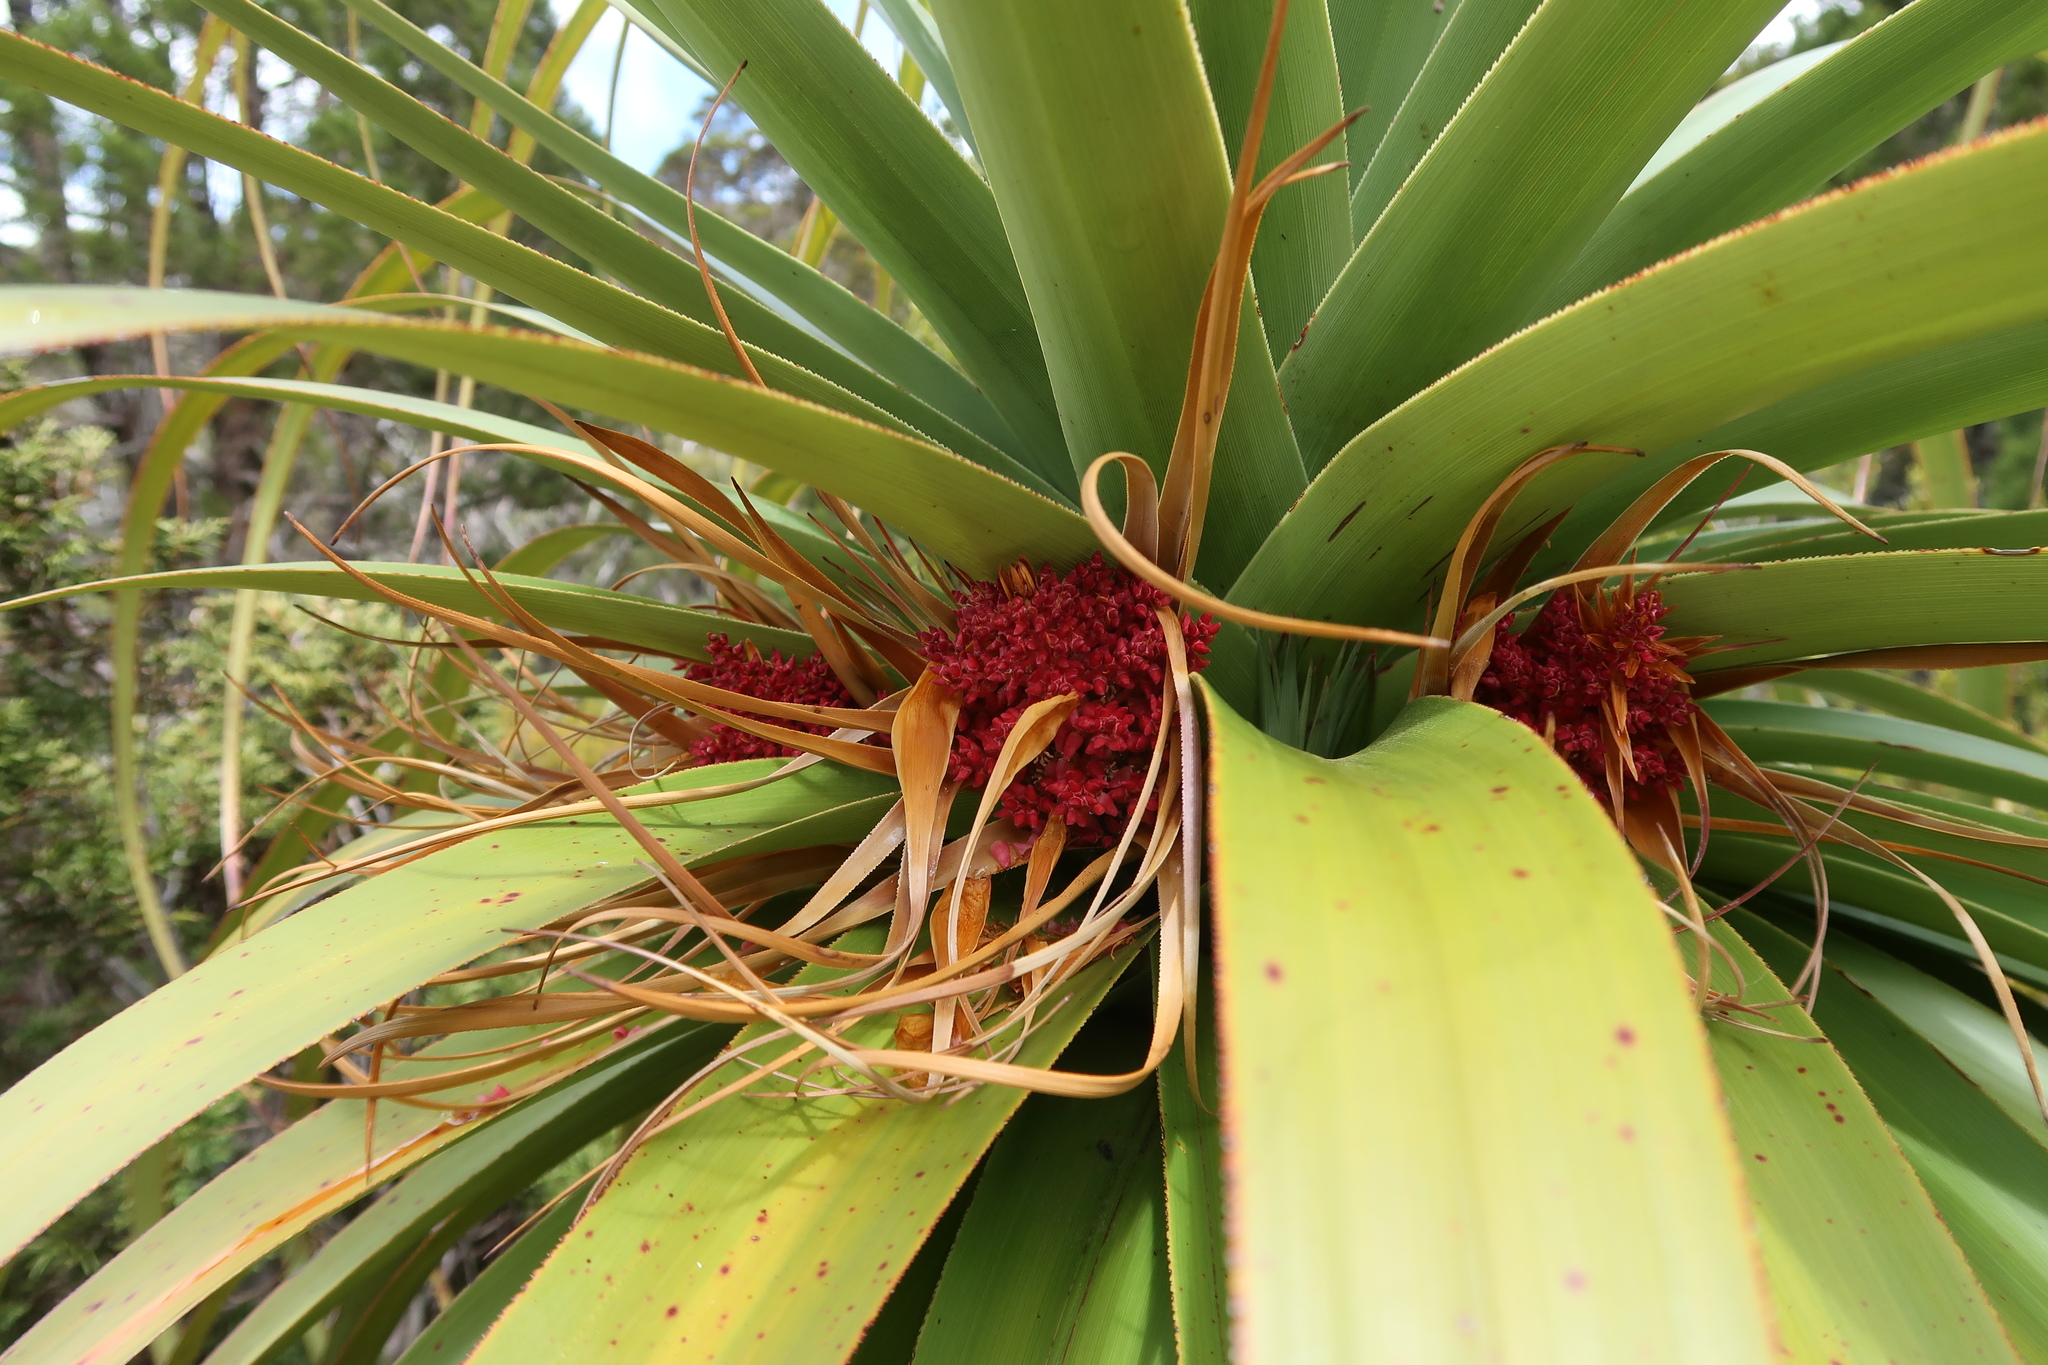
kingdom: Plantae
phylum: Tracheophyta
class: Magnoliopsida
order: Ericales
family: Ericaceae
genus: Dracophyllum
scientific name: Dracophyllum pandanifolium
